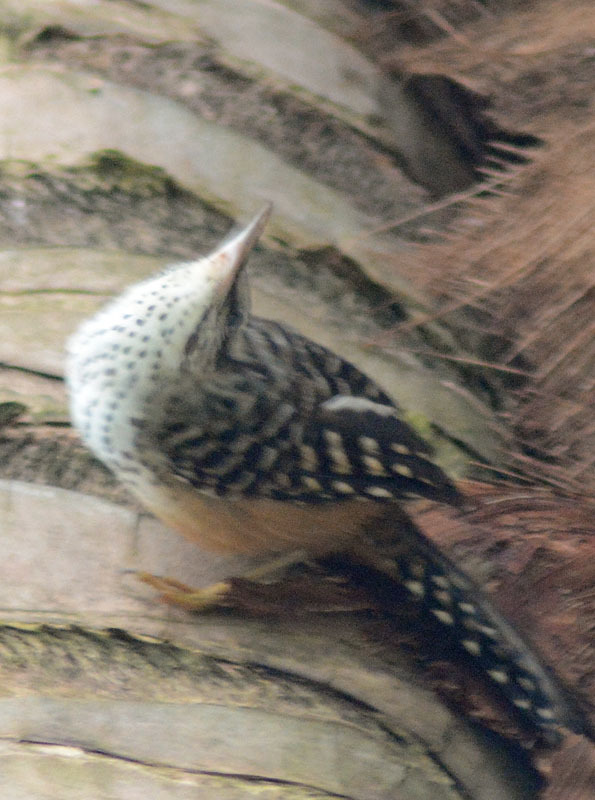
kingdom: Animalia
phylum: Chordata
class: Aves
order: Passeriformes
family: Troglodytidae
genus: Campylorhynchus
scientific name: Campylorhynchus zonatus
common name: Band-backed wren
